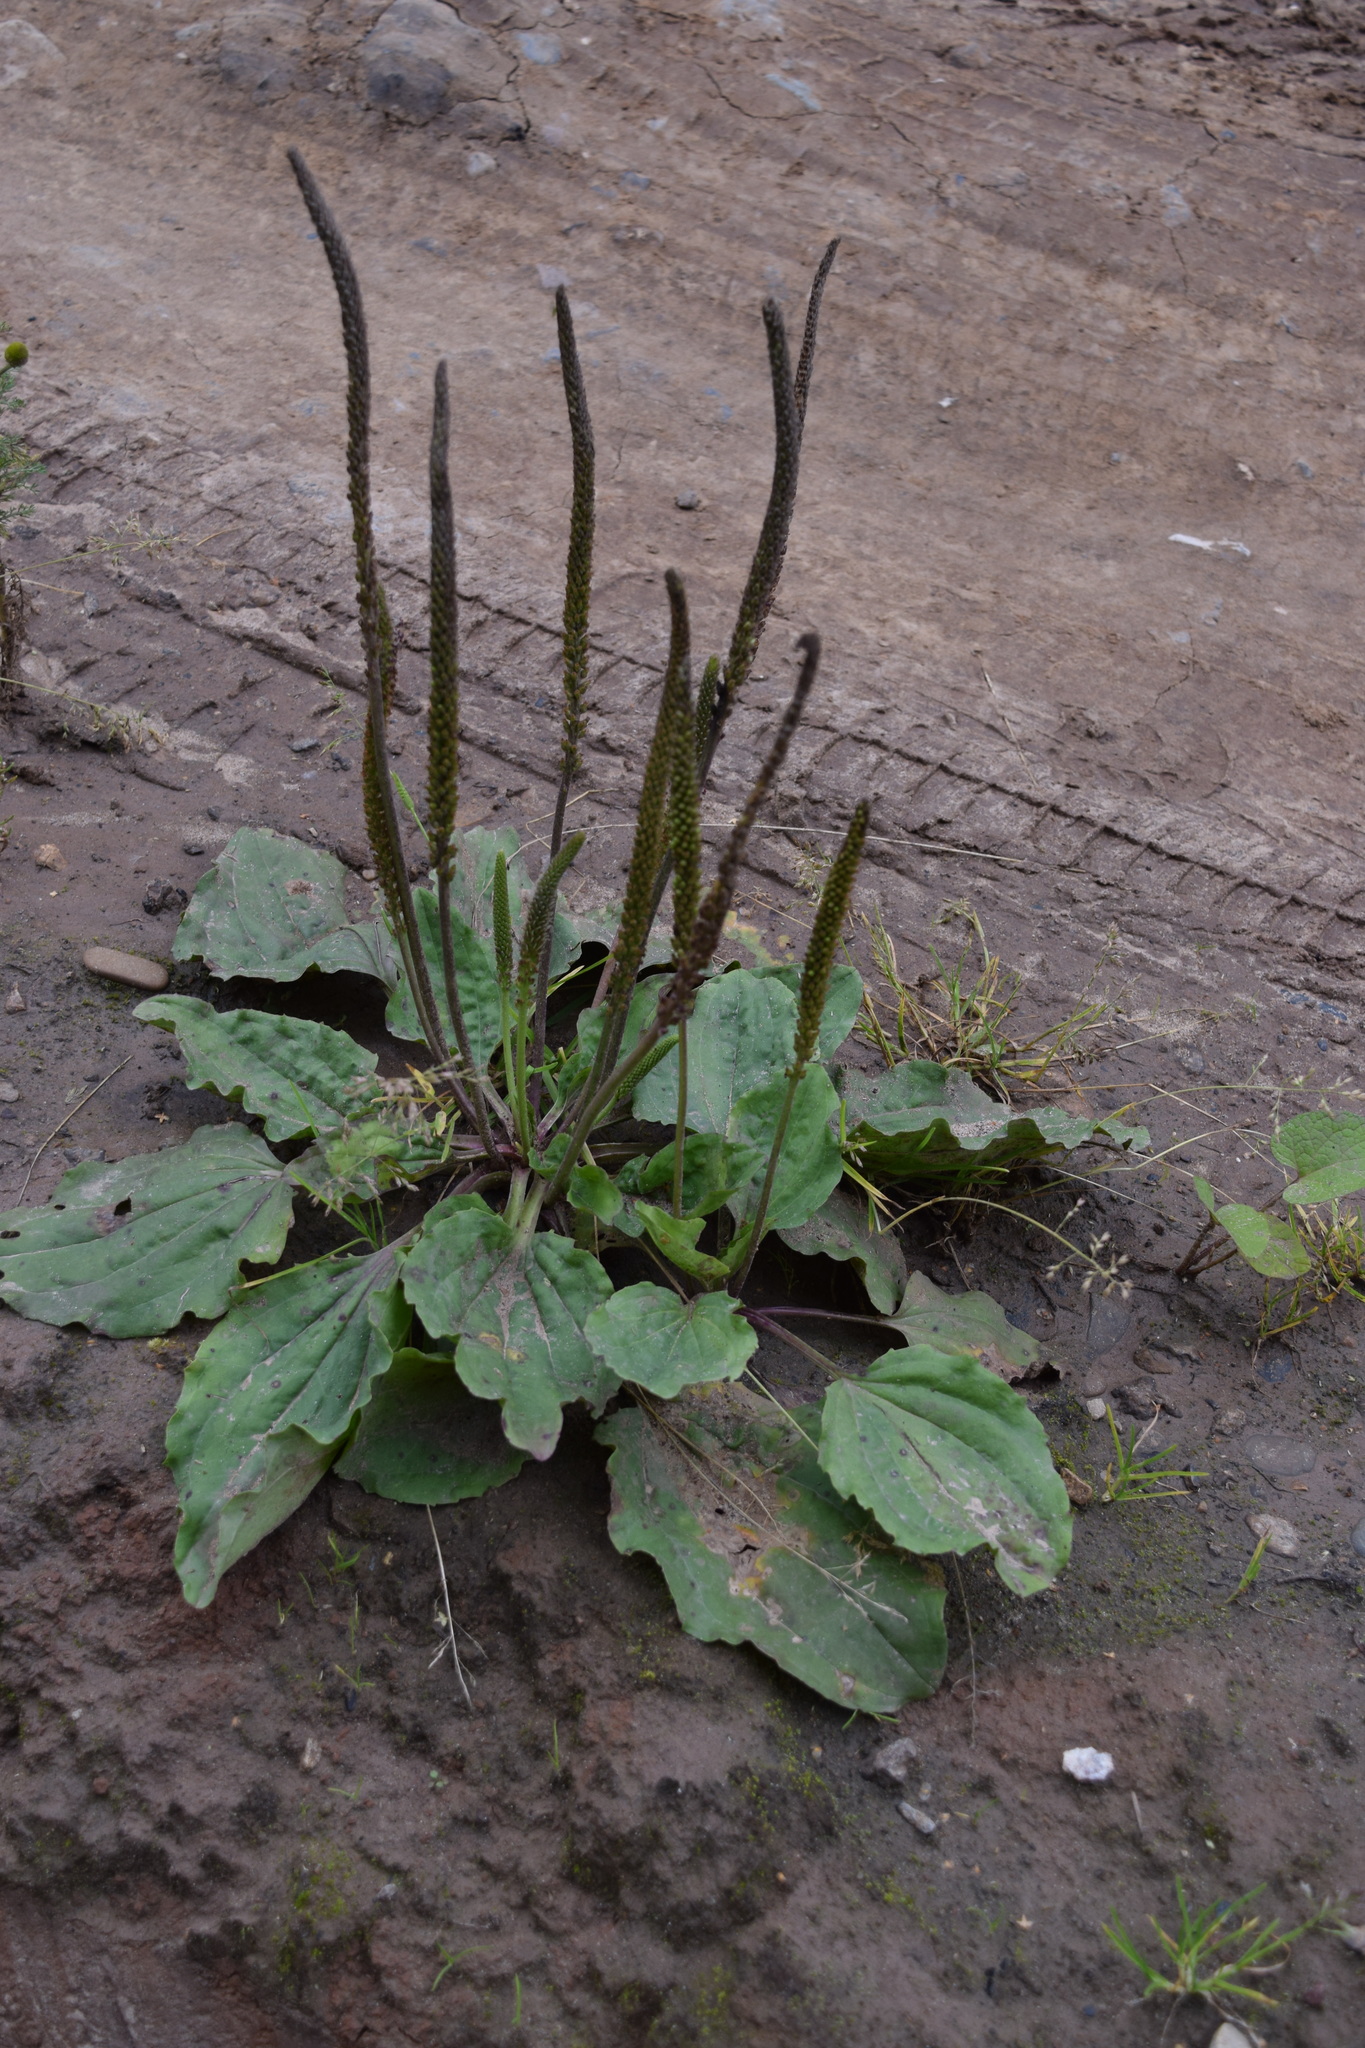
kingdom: Plantae
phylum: Tracheophyta
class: Magnoliopsida
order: Lamiales
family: Plantaginaceae
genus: Plantago
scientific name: Plantago major
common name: Common plantain
